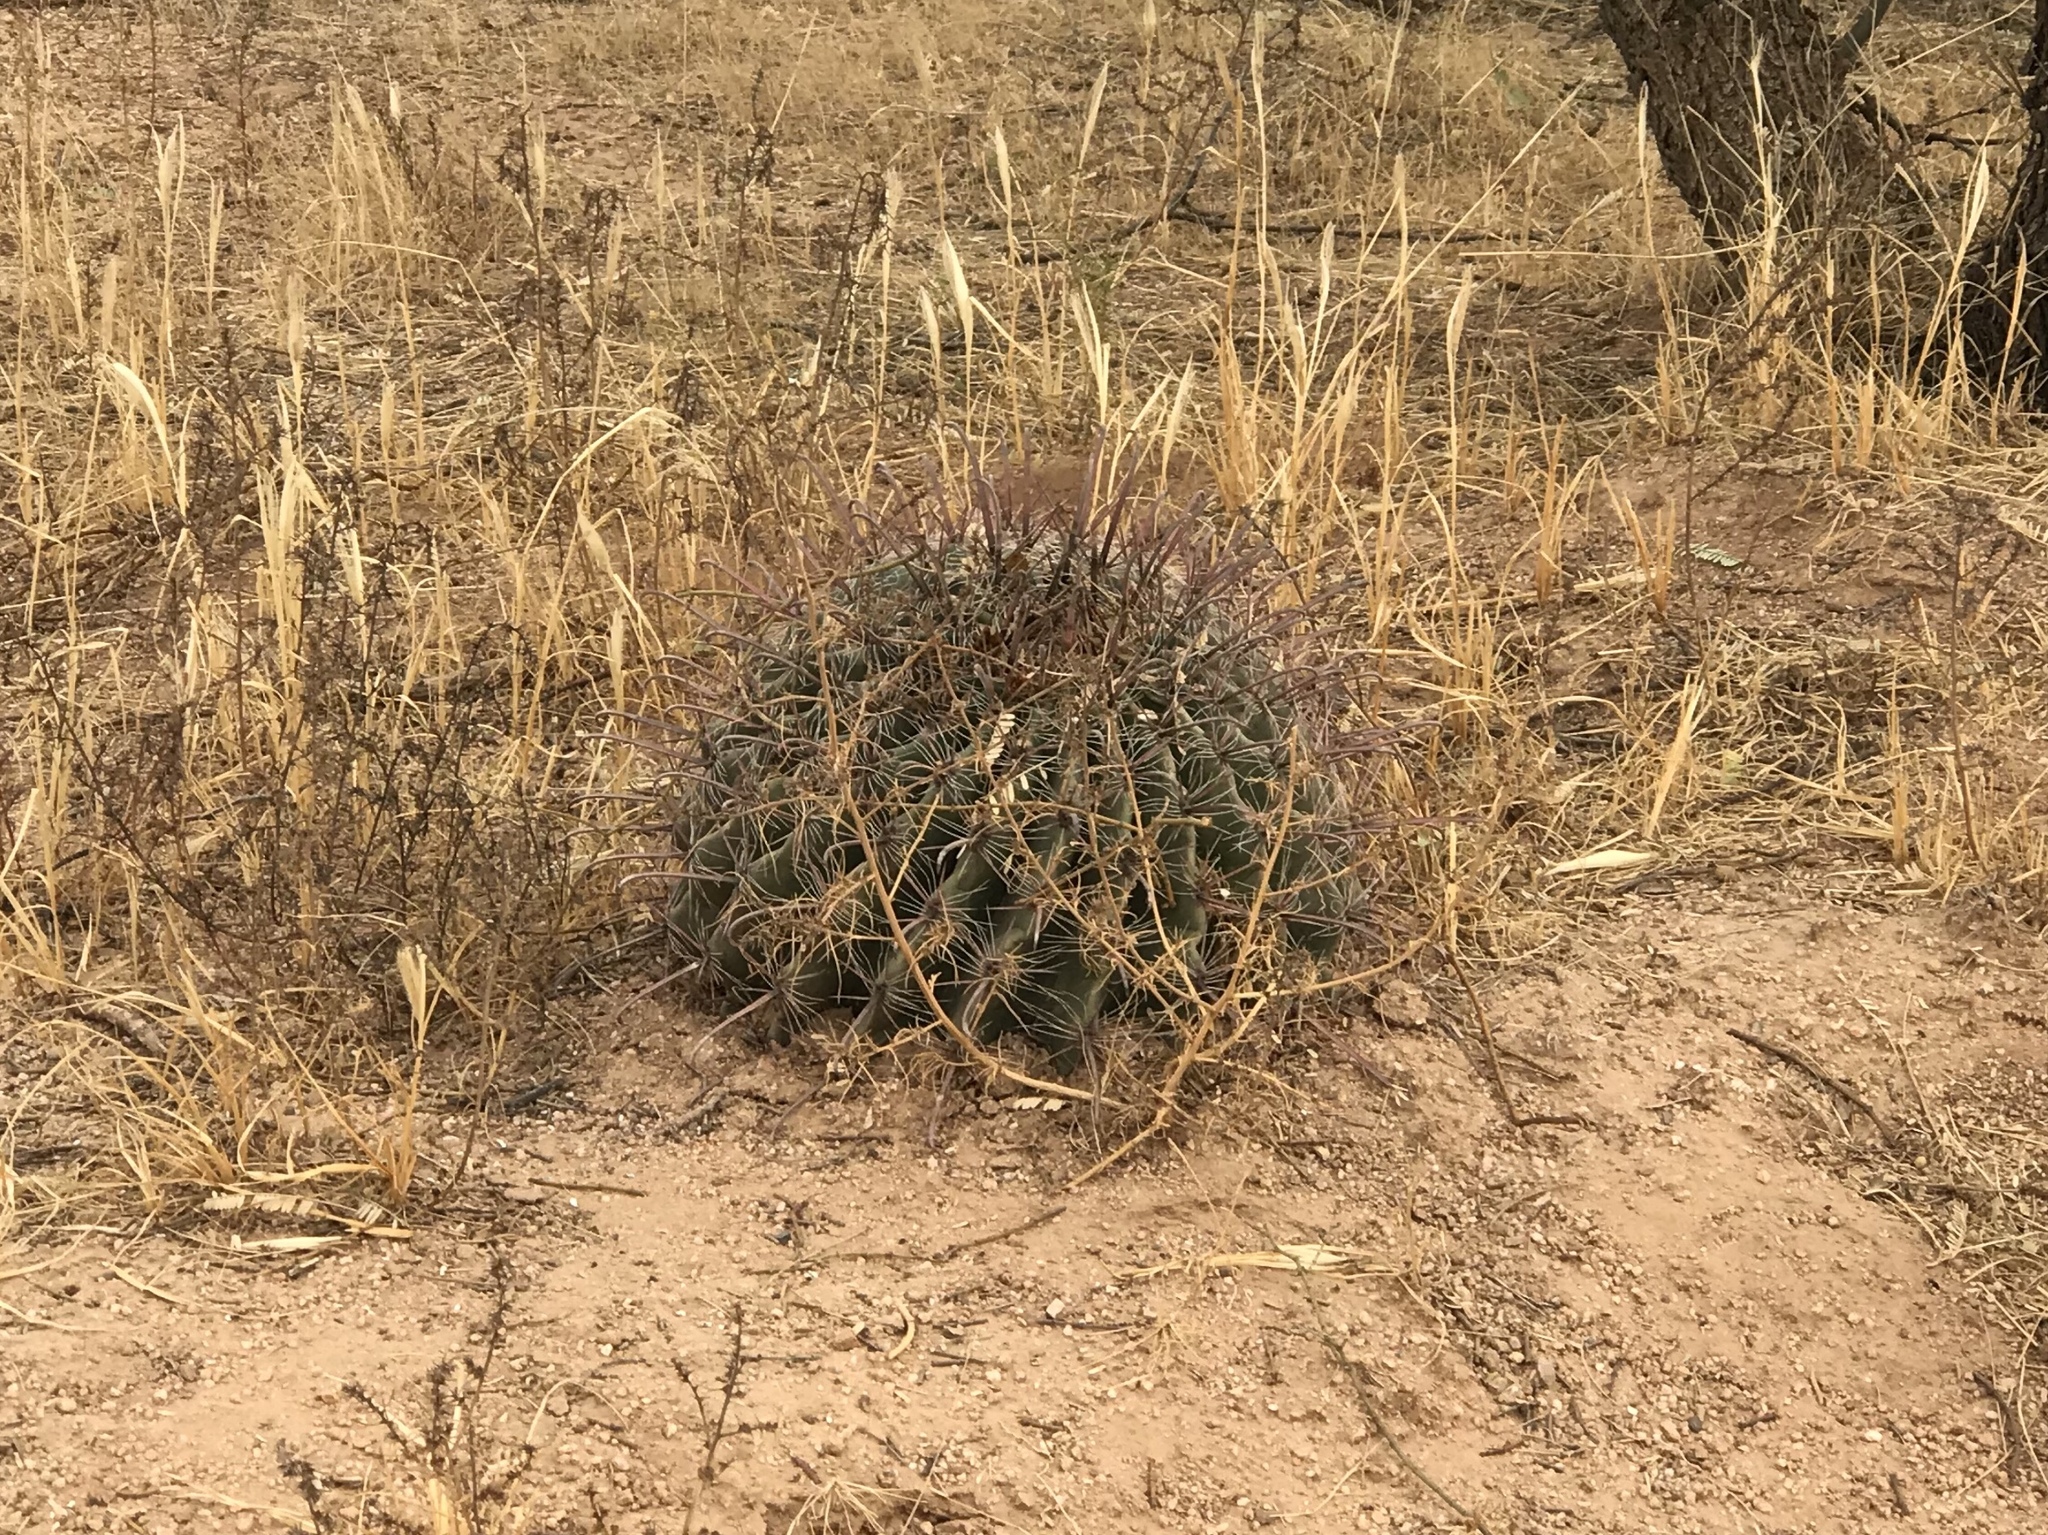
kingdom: Plantae
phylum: Tracheophyta
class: Magnoliopsida
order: Caryophyllales
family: Cactaceae
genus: Ferocactus
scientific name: Ferocactus wislizeni
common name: Candy barrel cactus
